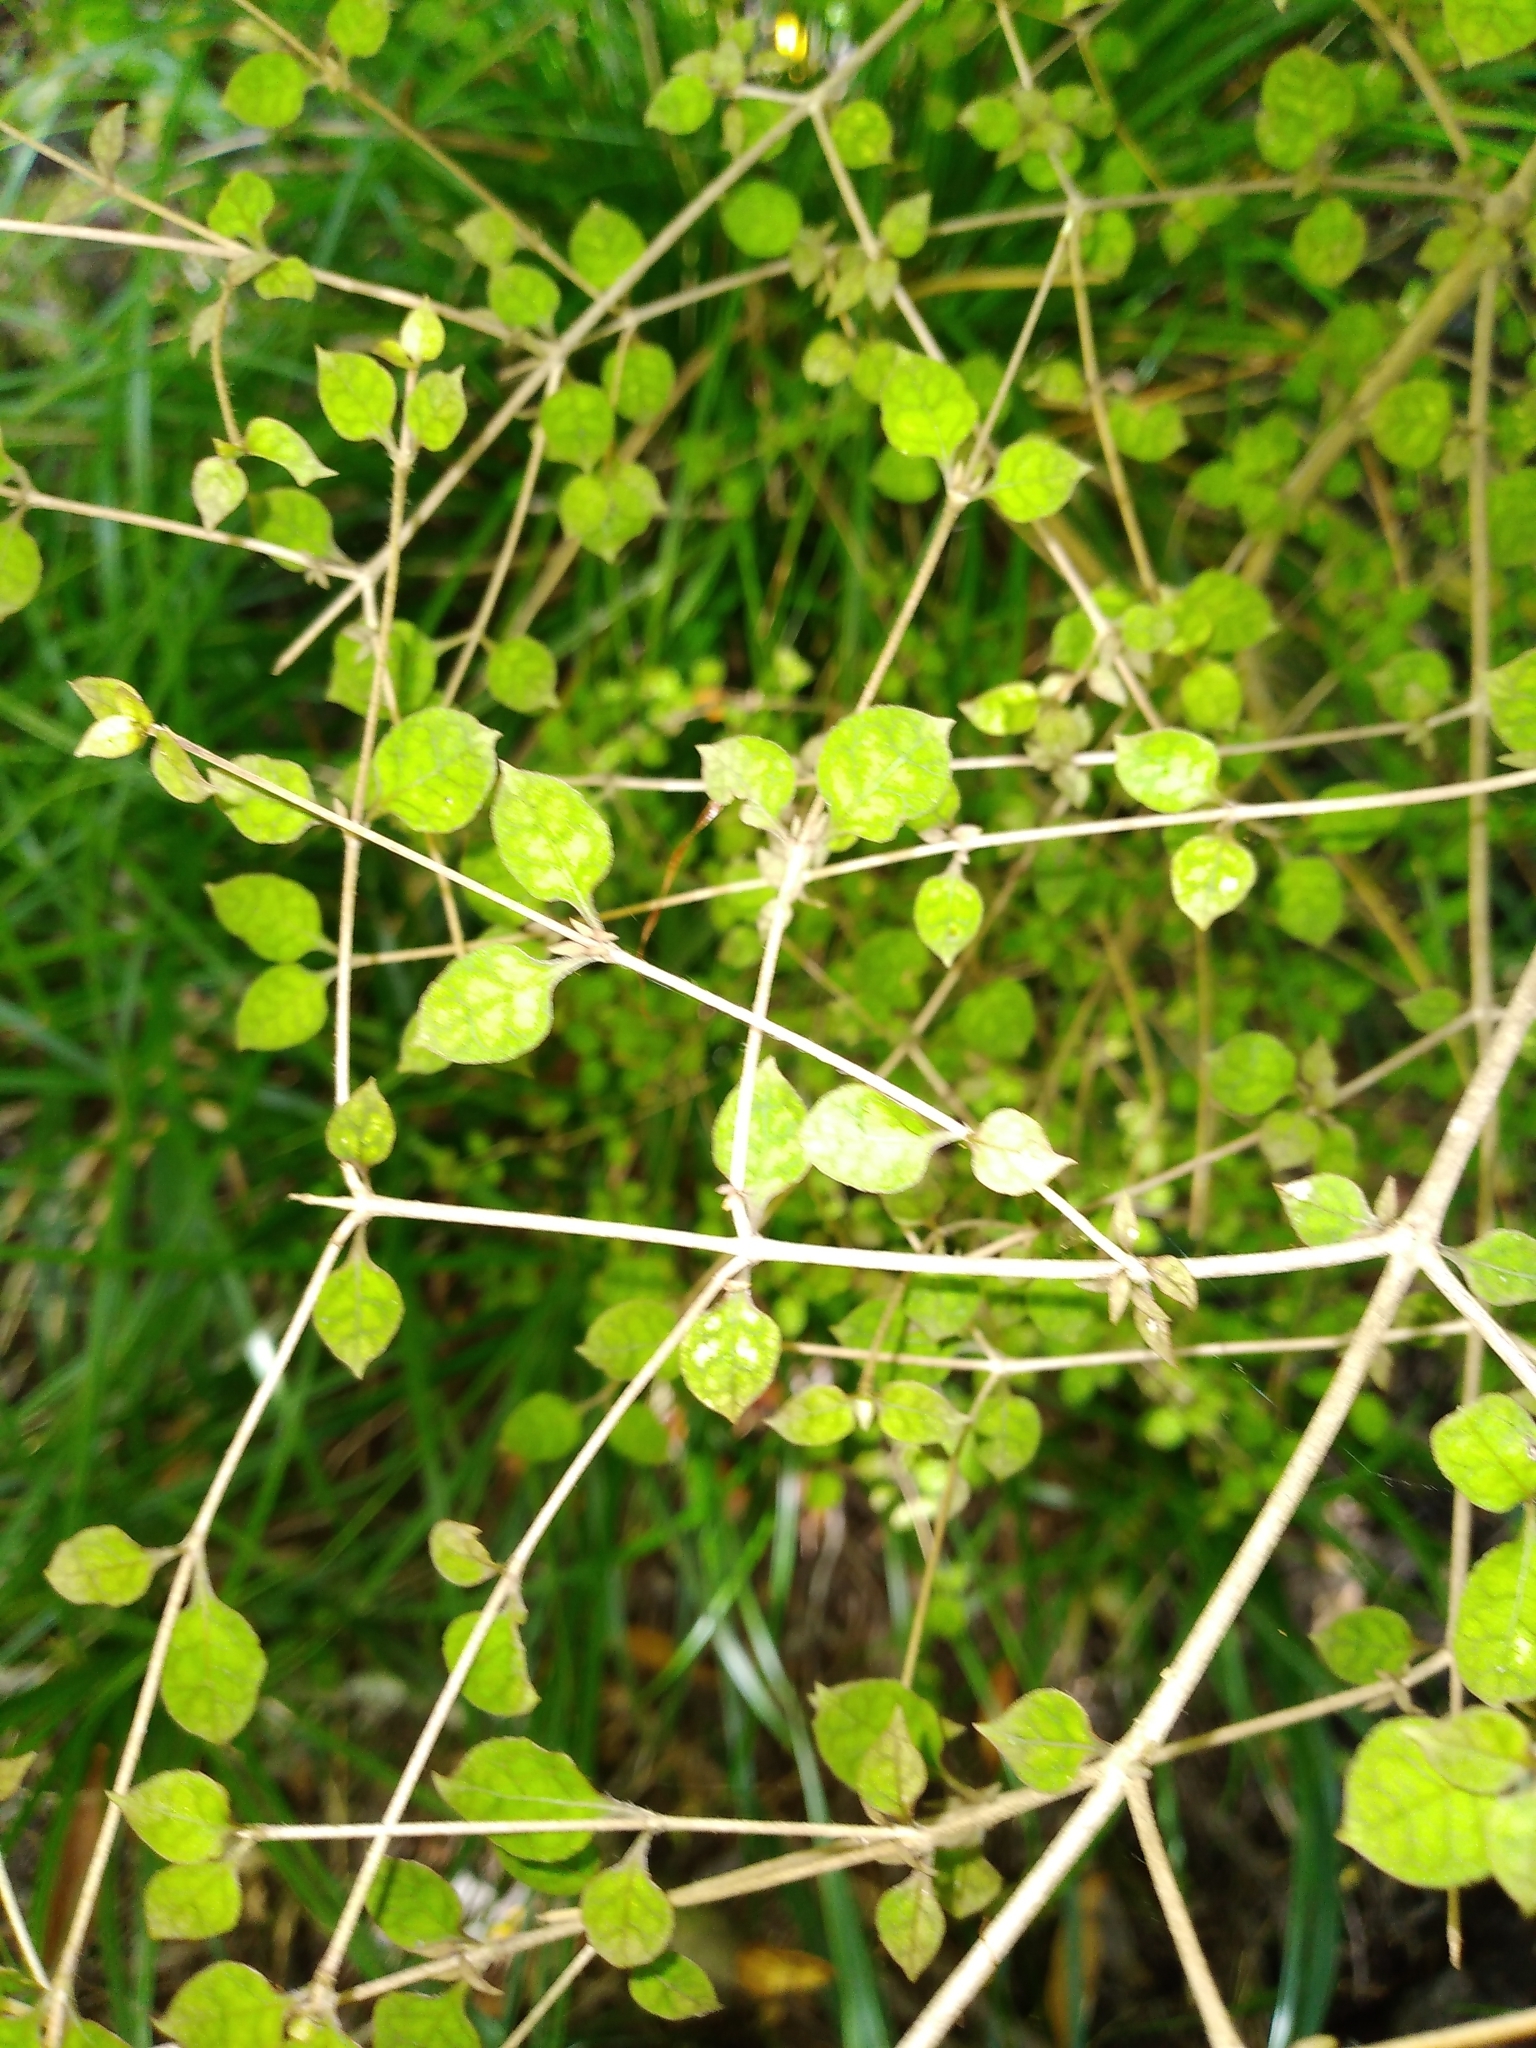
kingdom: Plantae
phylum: Tracheophyta
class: Magnoliopsida
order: Gentianales
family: Rubiaceae
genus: Coprosma
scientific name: Coprosma areolata
